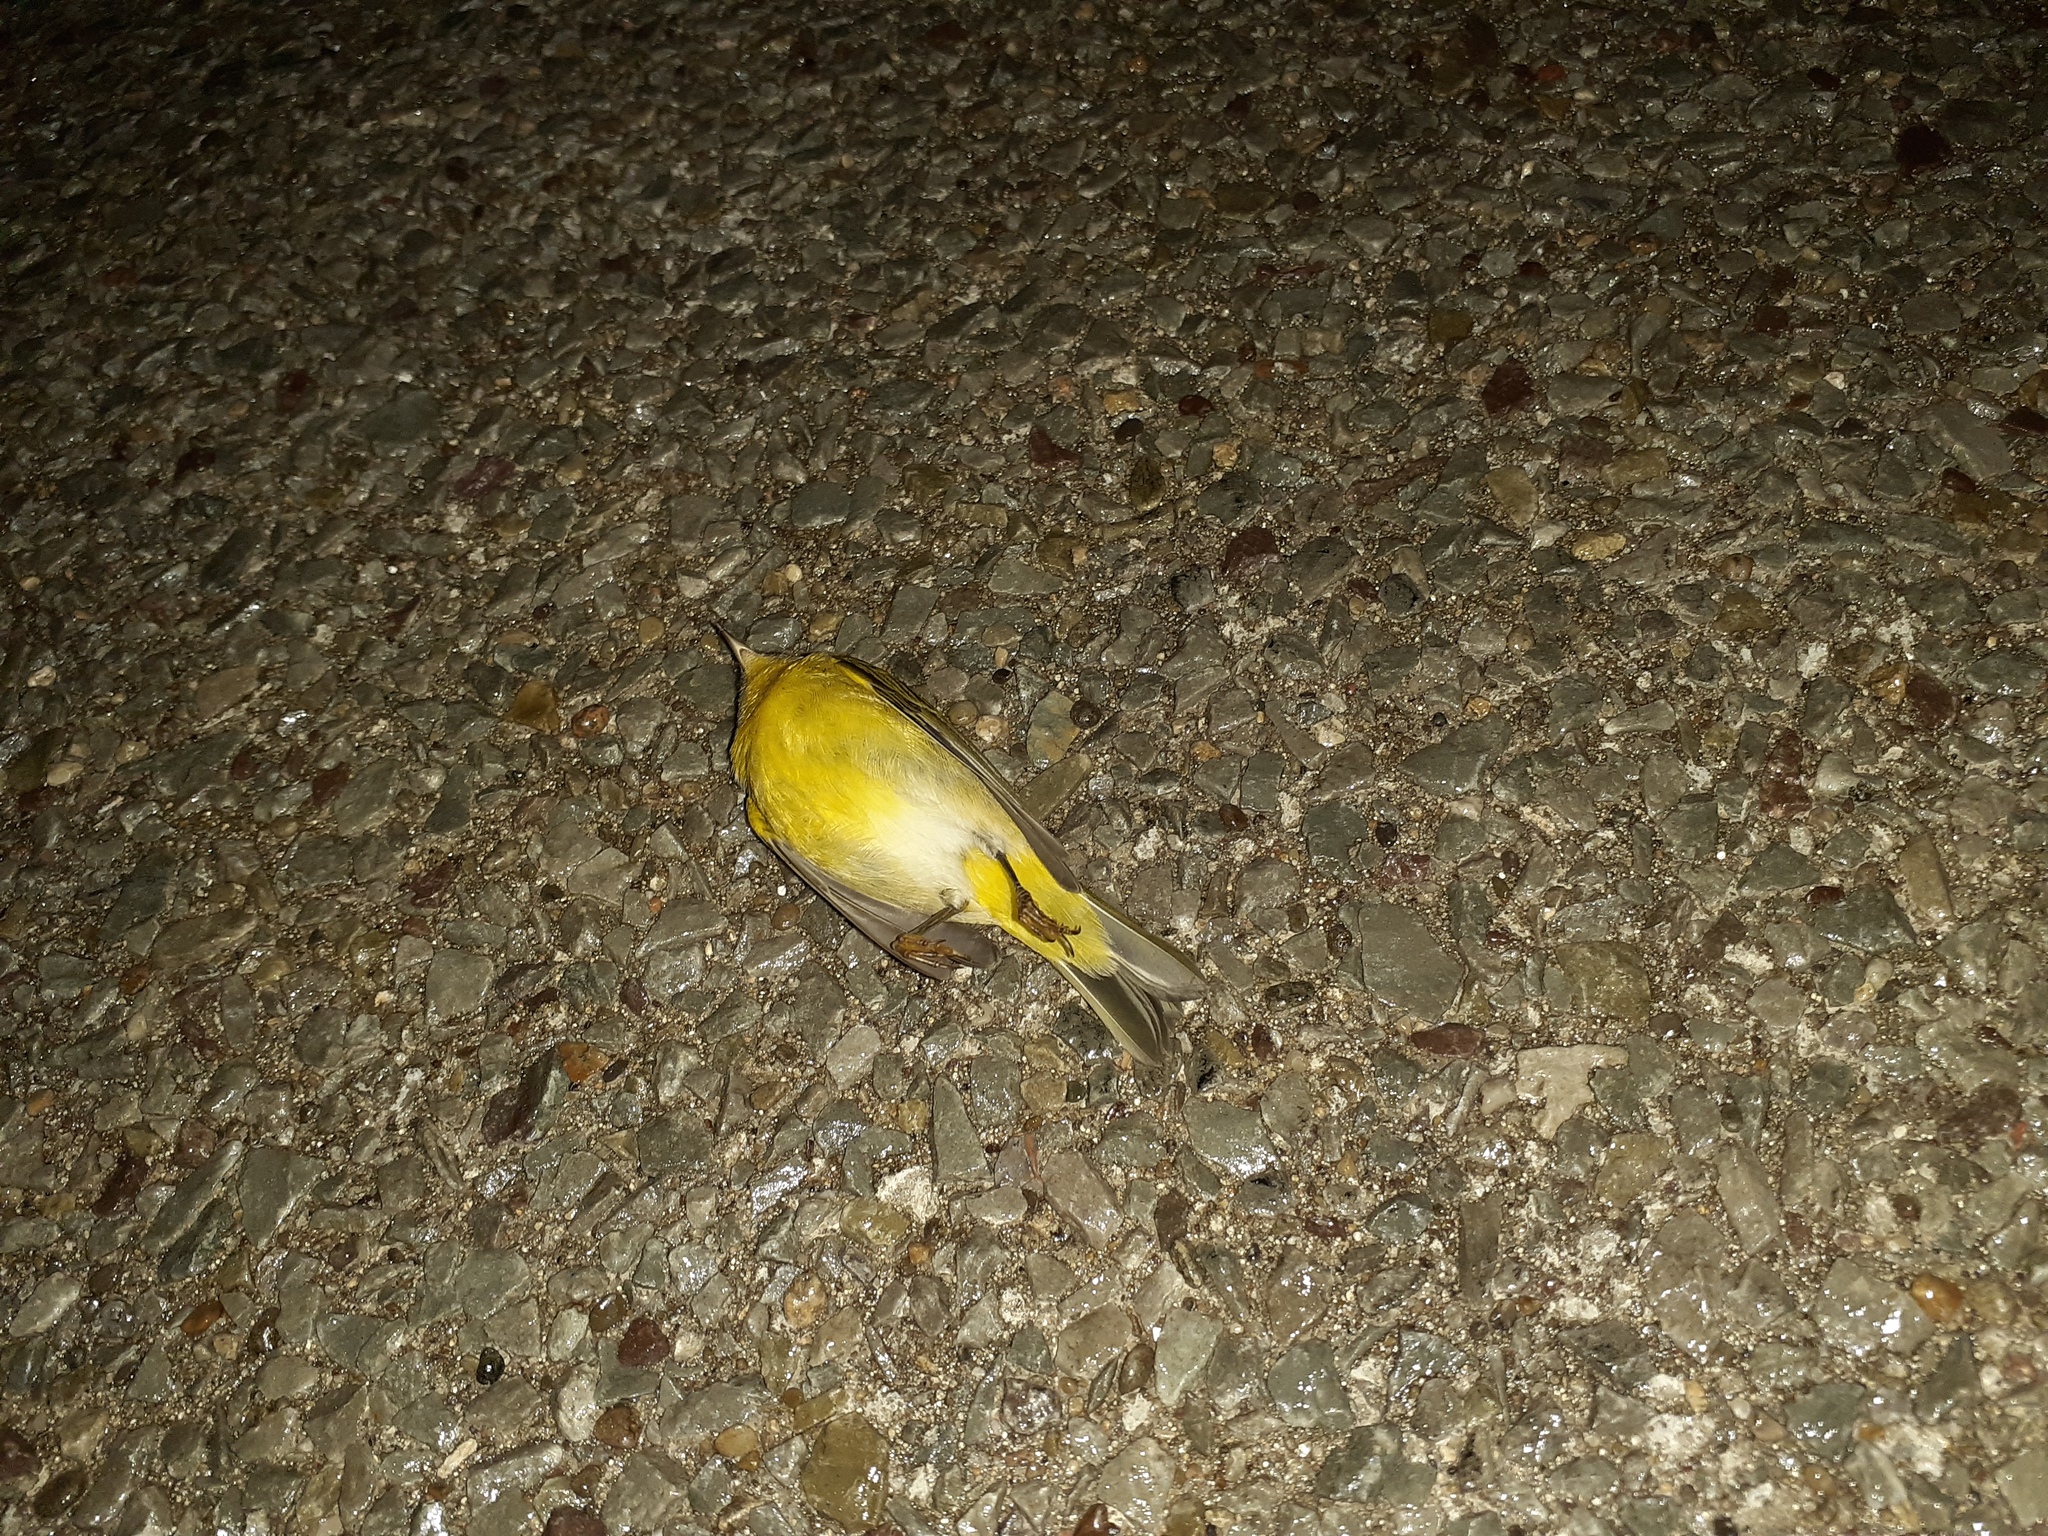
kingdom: Animalia
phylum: Chordata
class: Aves
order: Passeriformes
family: Parulidae
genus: Leiothlypis
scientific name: Leiothlypis ruficapilla
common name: Nashville warbler
